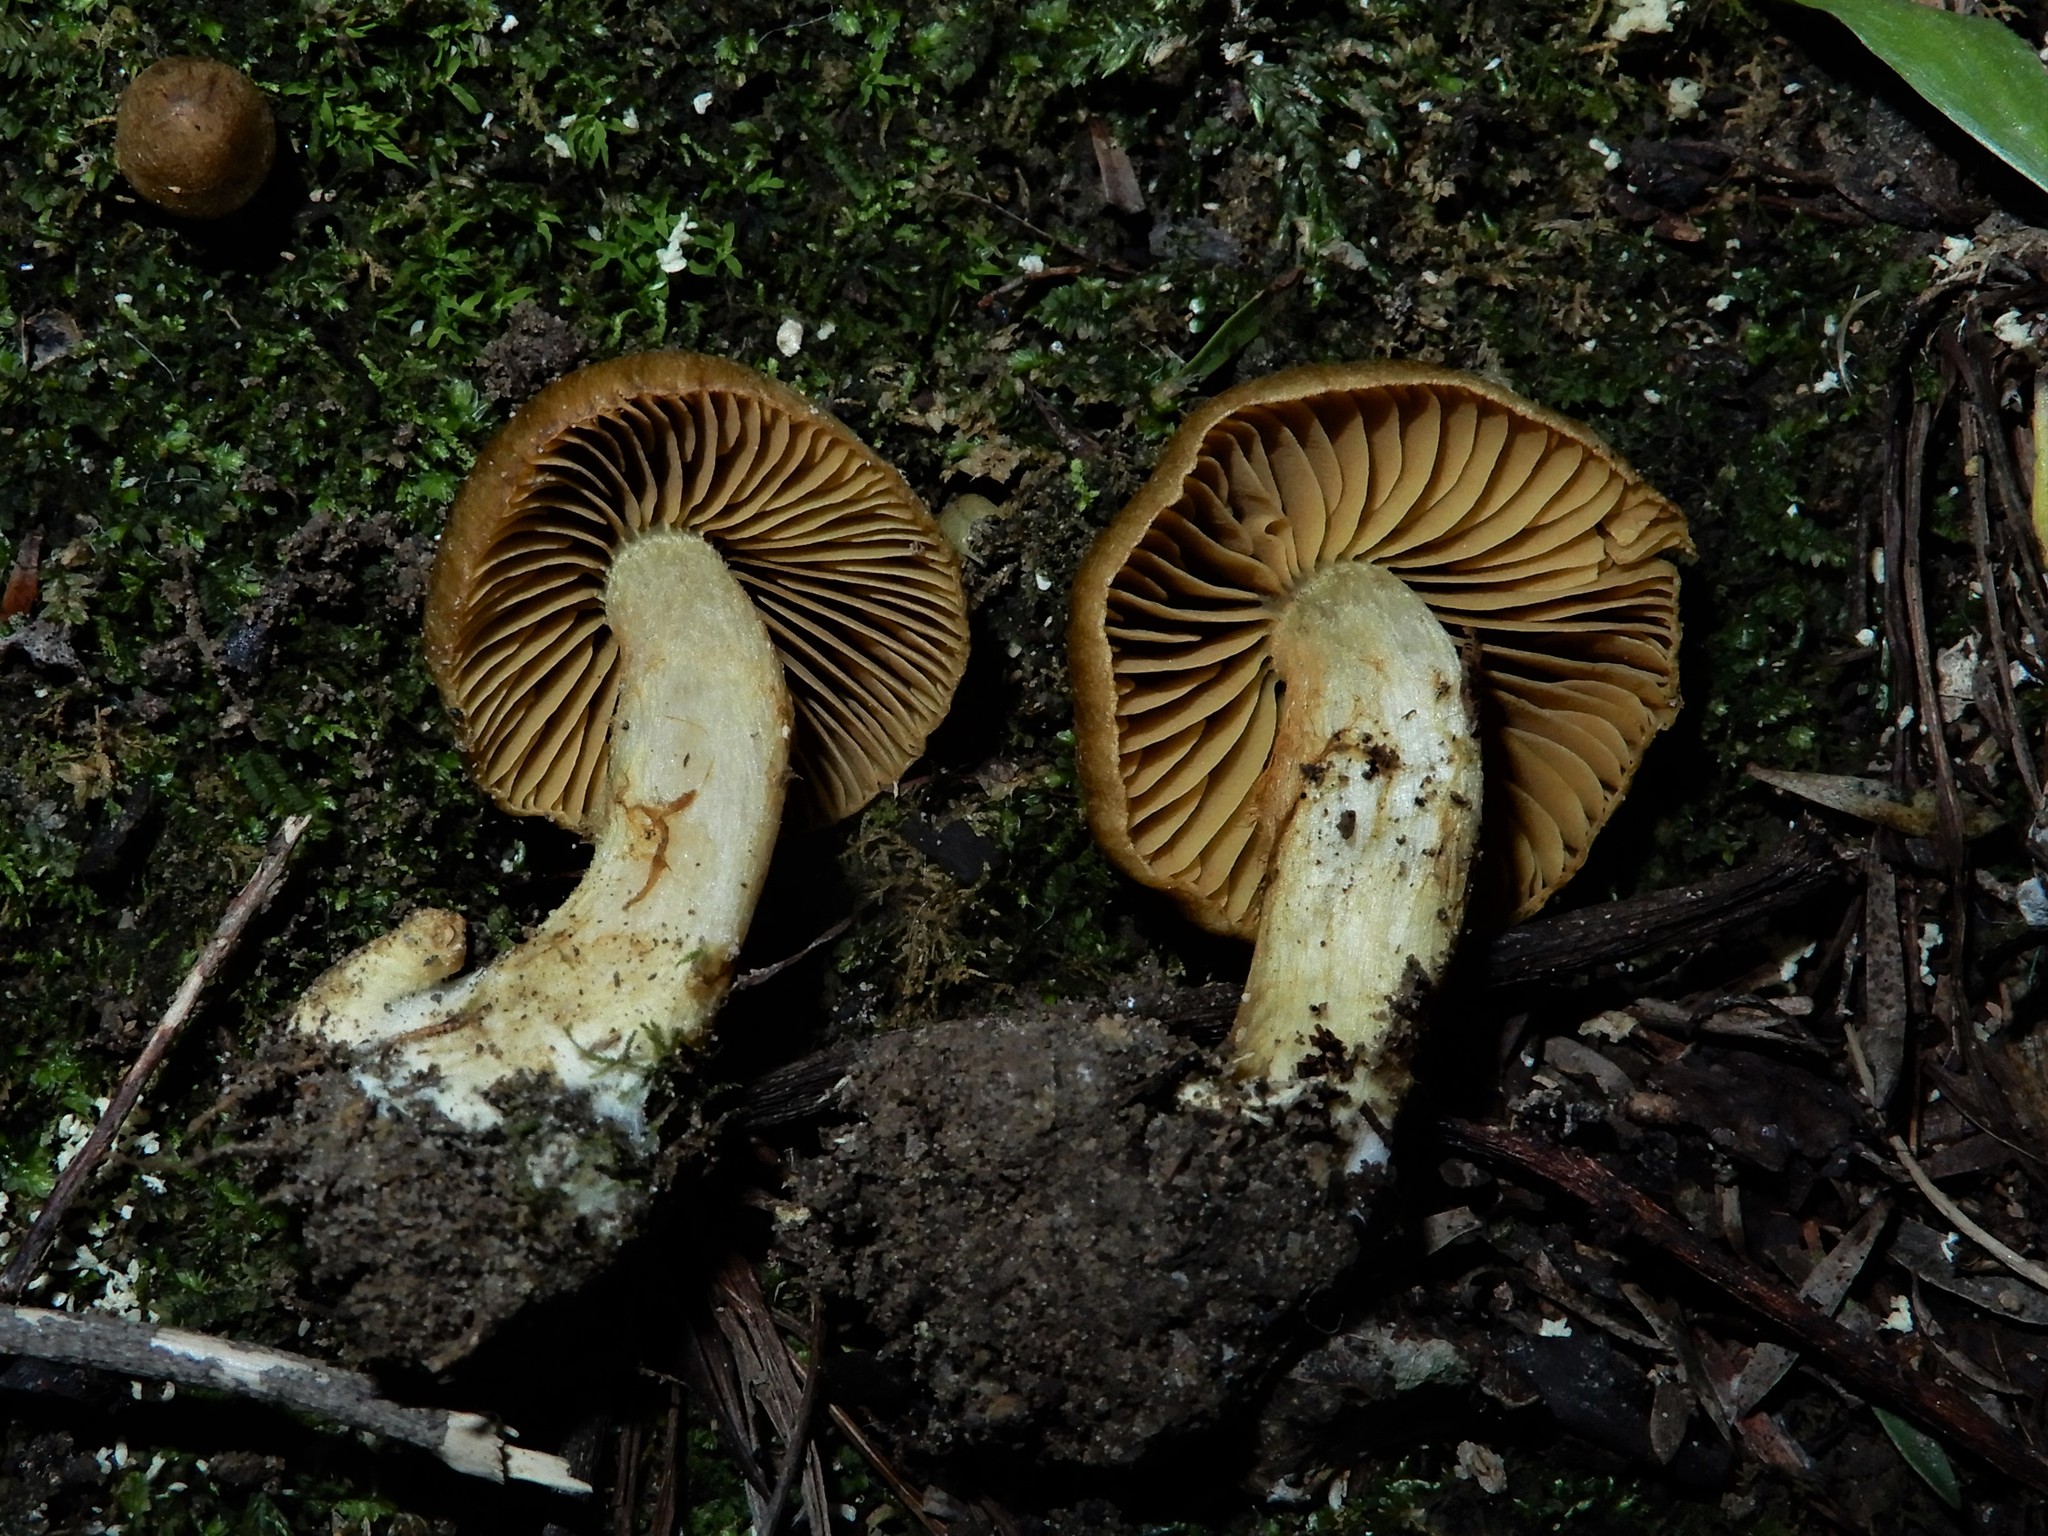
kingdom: Fungi
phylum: Basidiomycota
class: Agaricomycetes
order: Agaricales
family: Cortinariaceae
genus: Cortinarius
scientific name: Cortinarius
